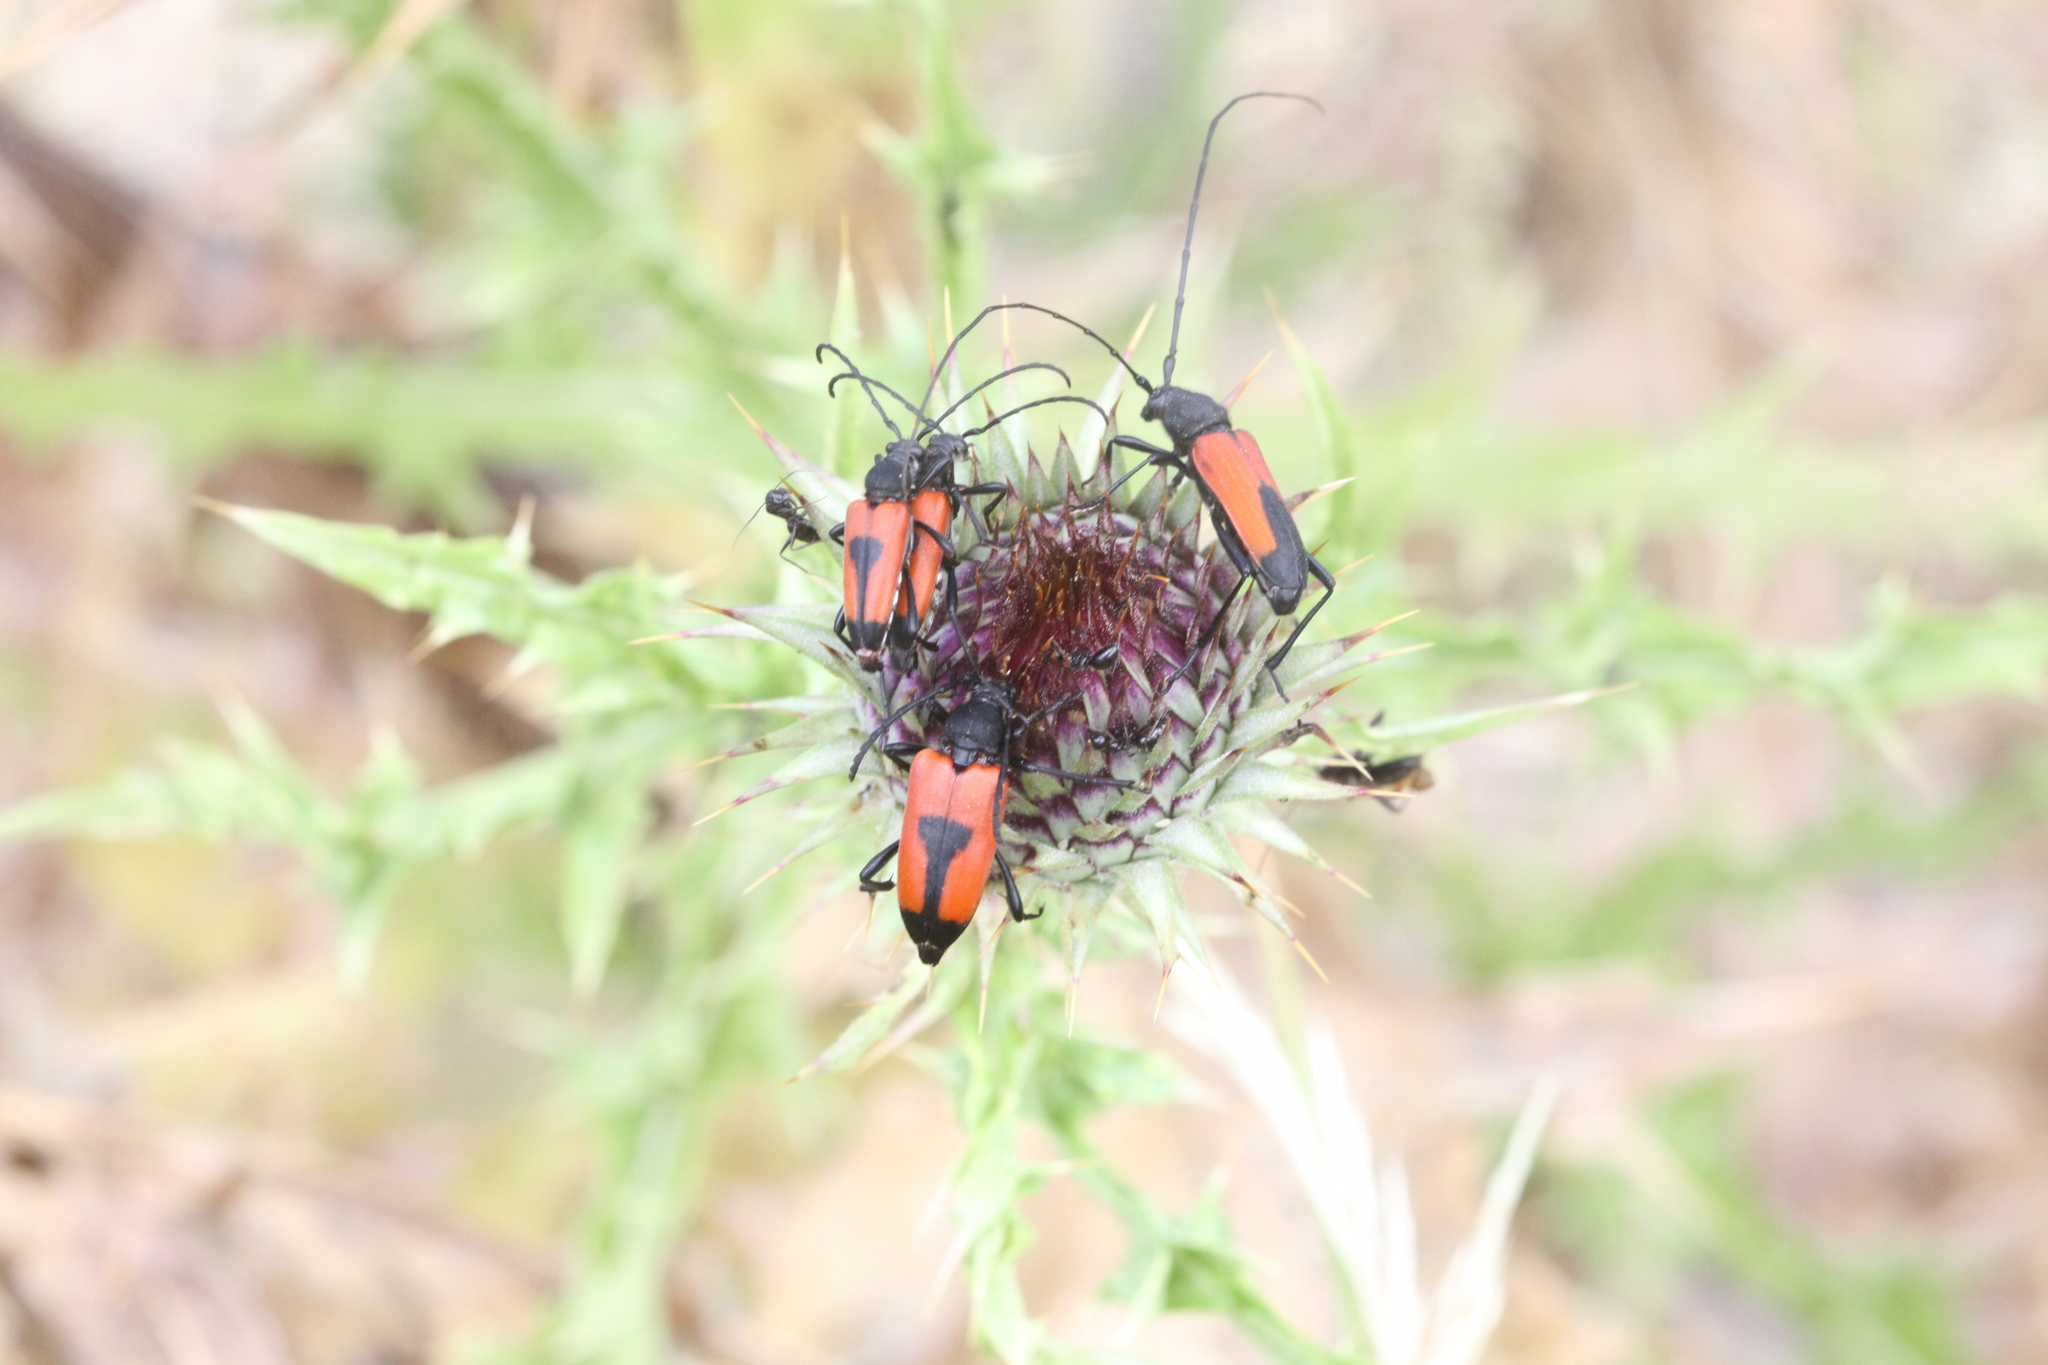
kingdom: Animalia
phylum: Arthropoda
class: Insecta
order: Coleoptera
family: Cerambycidae
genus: Stictoleptura
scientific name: Stictoleptura cordigera
